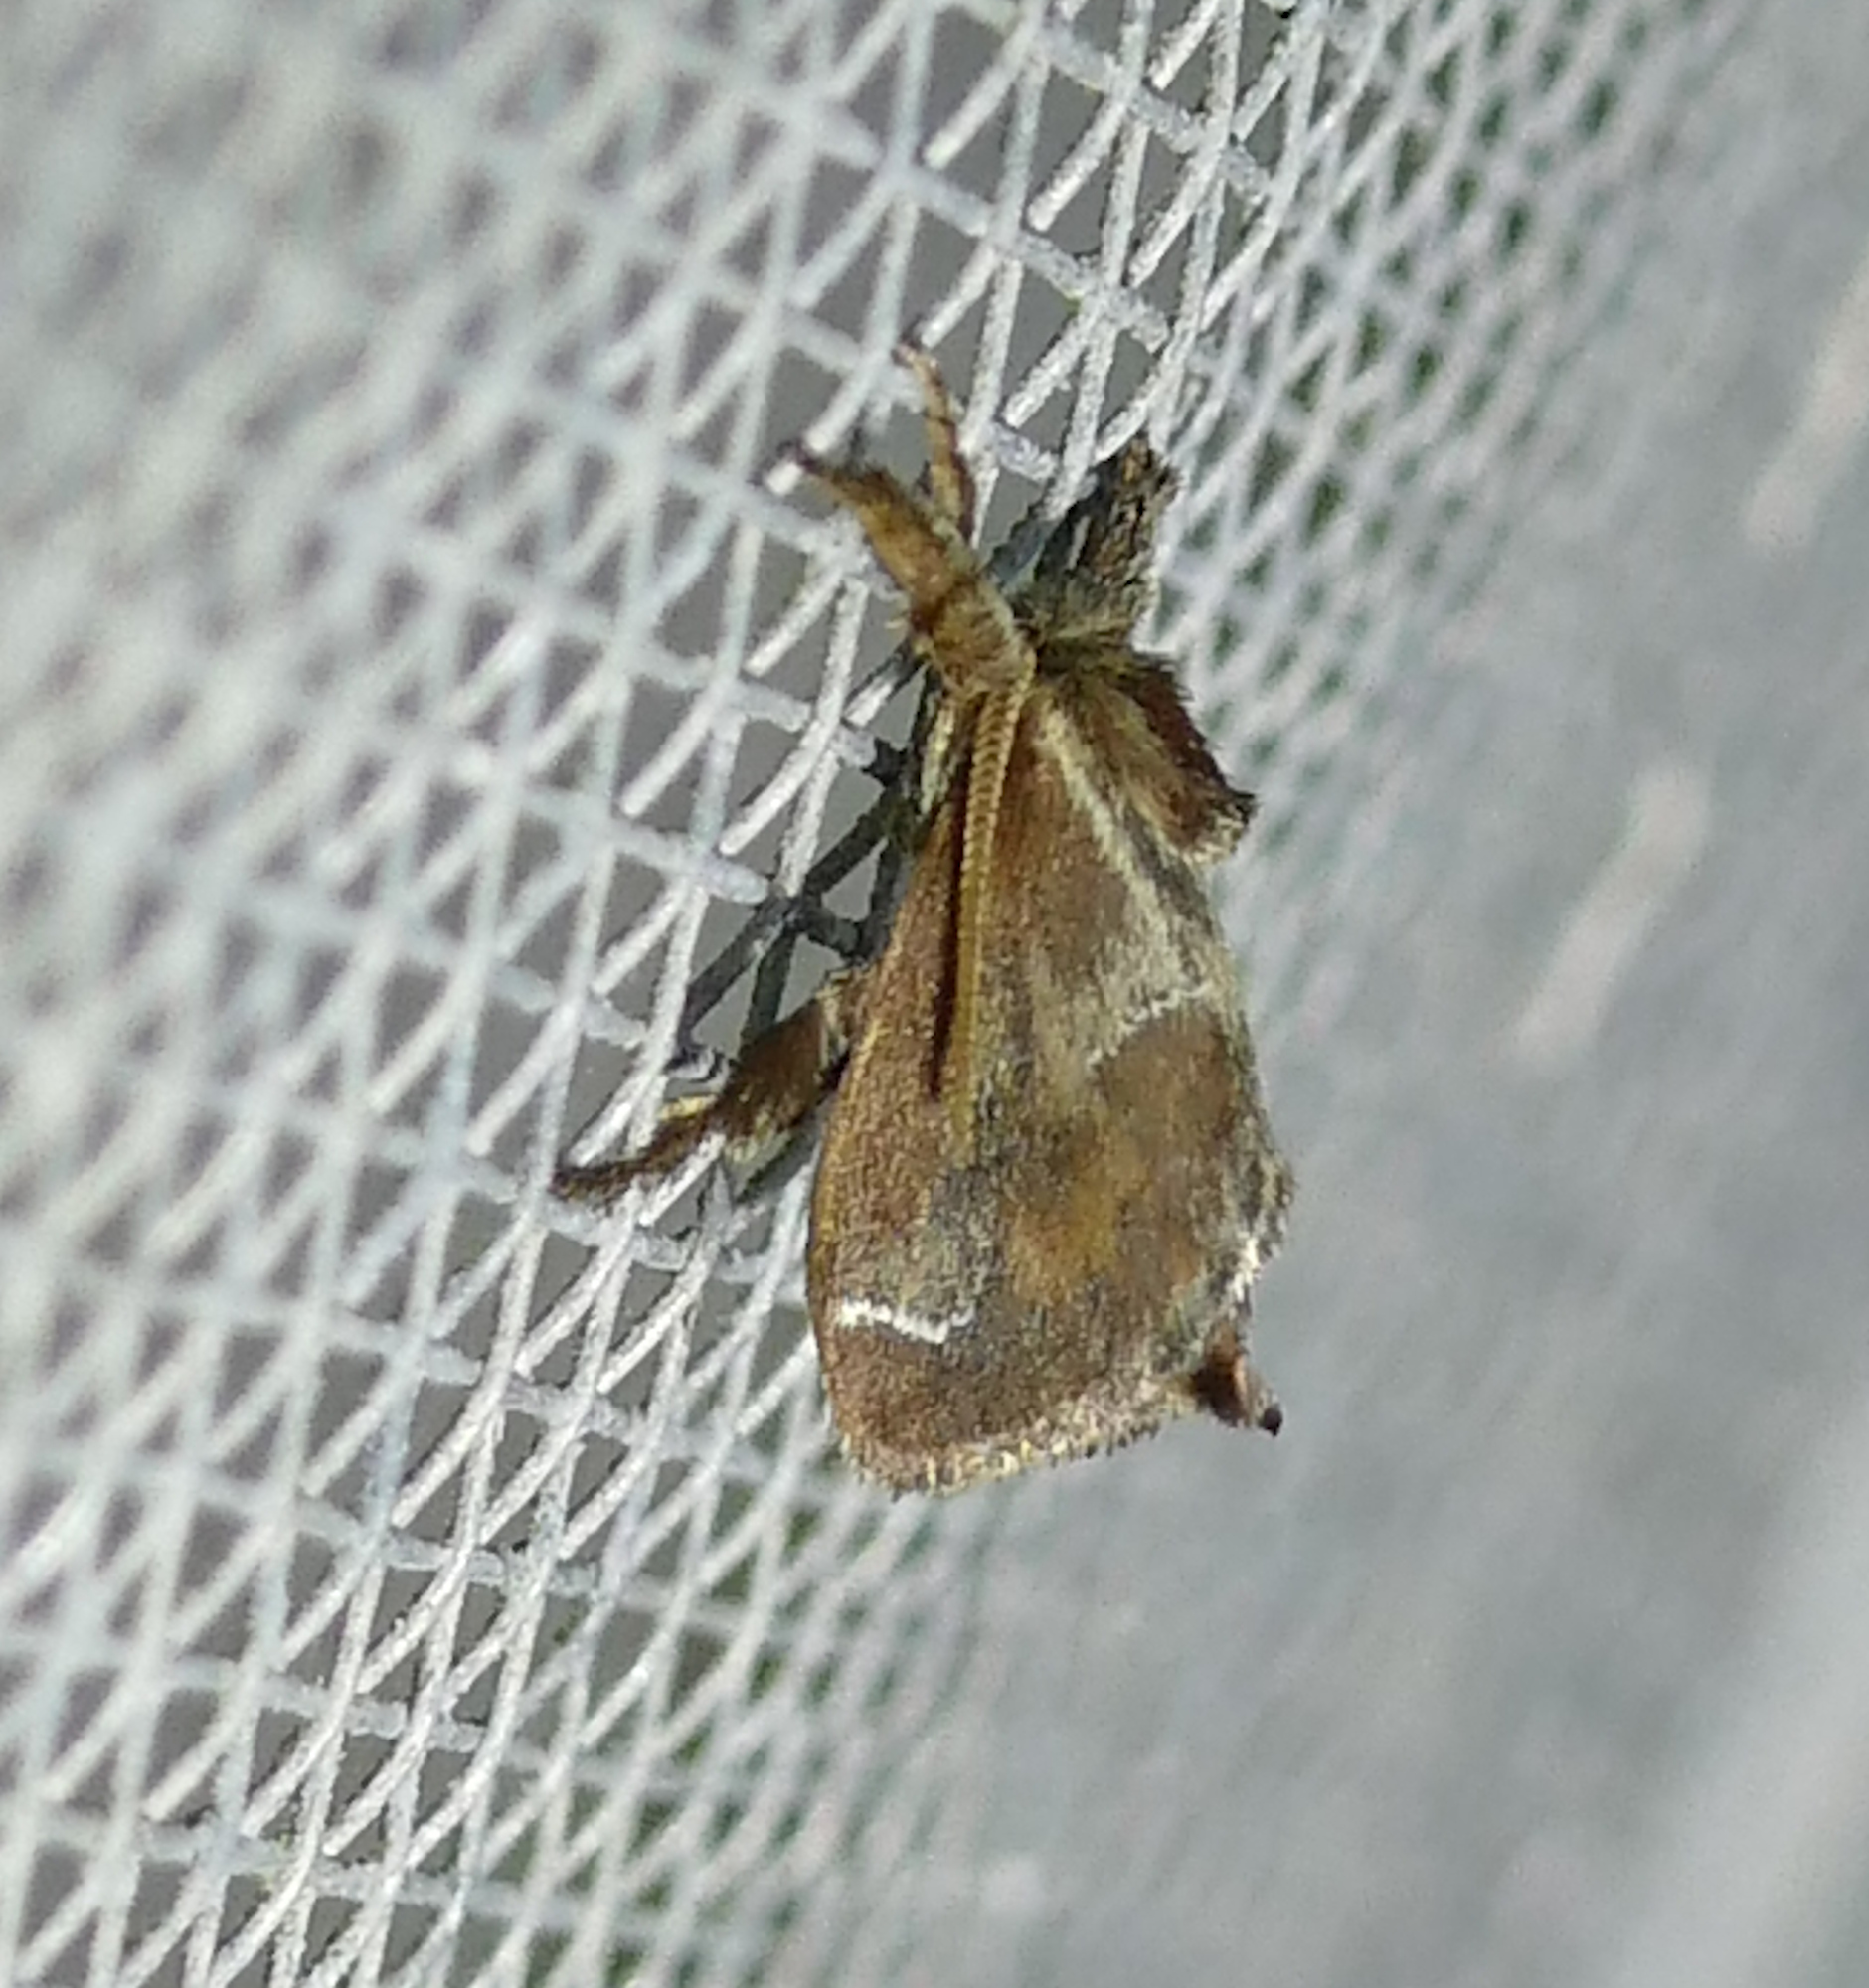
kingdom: Animalia
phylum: Arthropoda
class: Insecta
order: Lepidoptera
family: Limacodidae
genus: Adoneta
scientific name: Adoneta spinuloides
